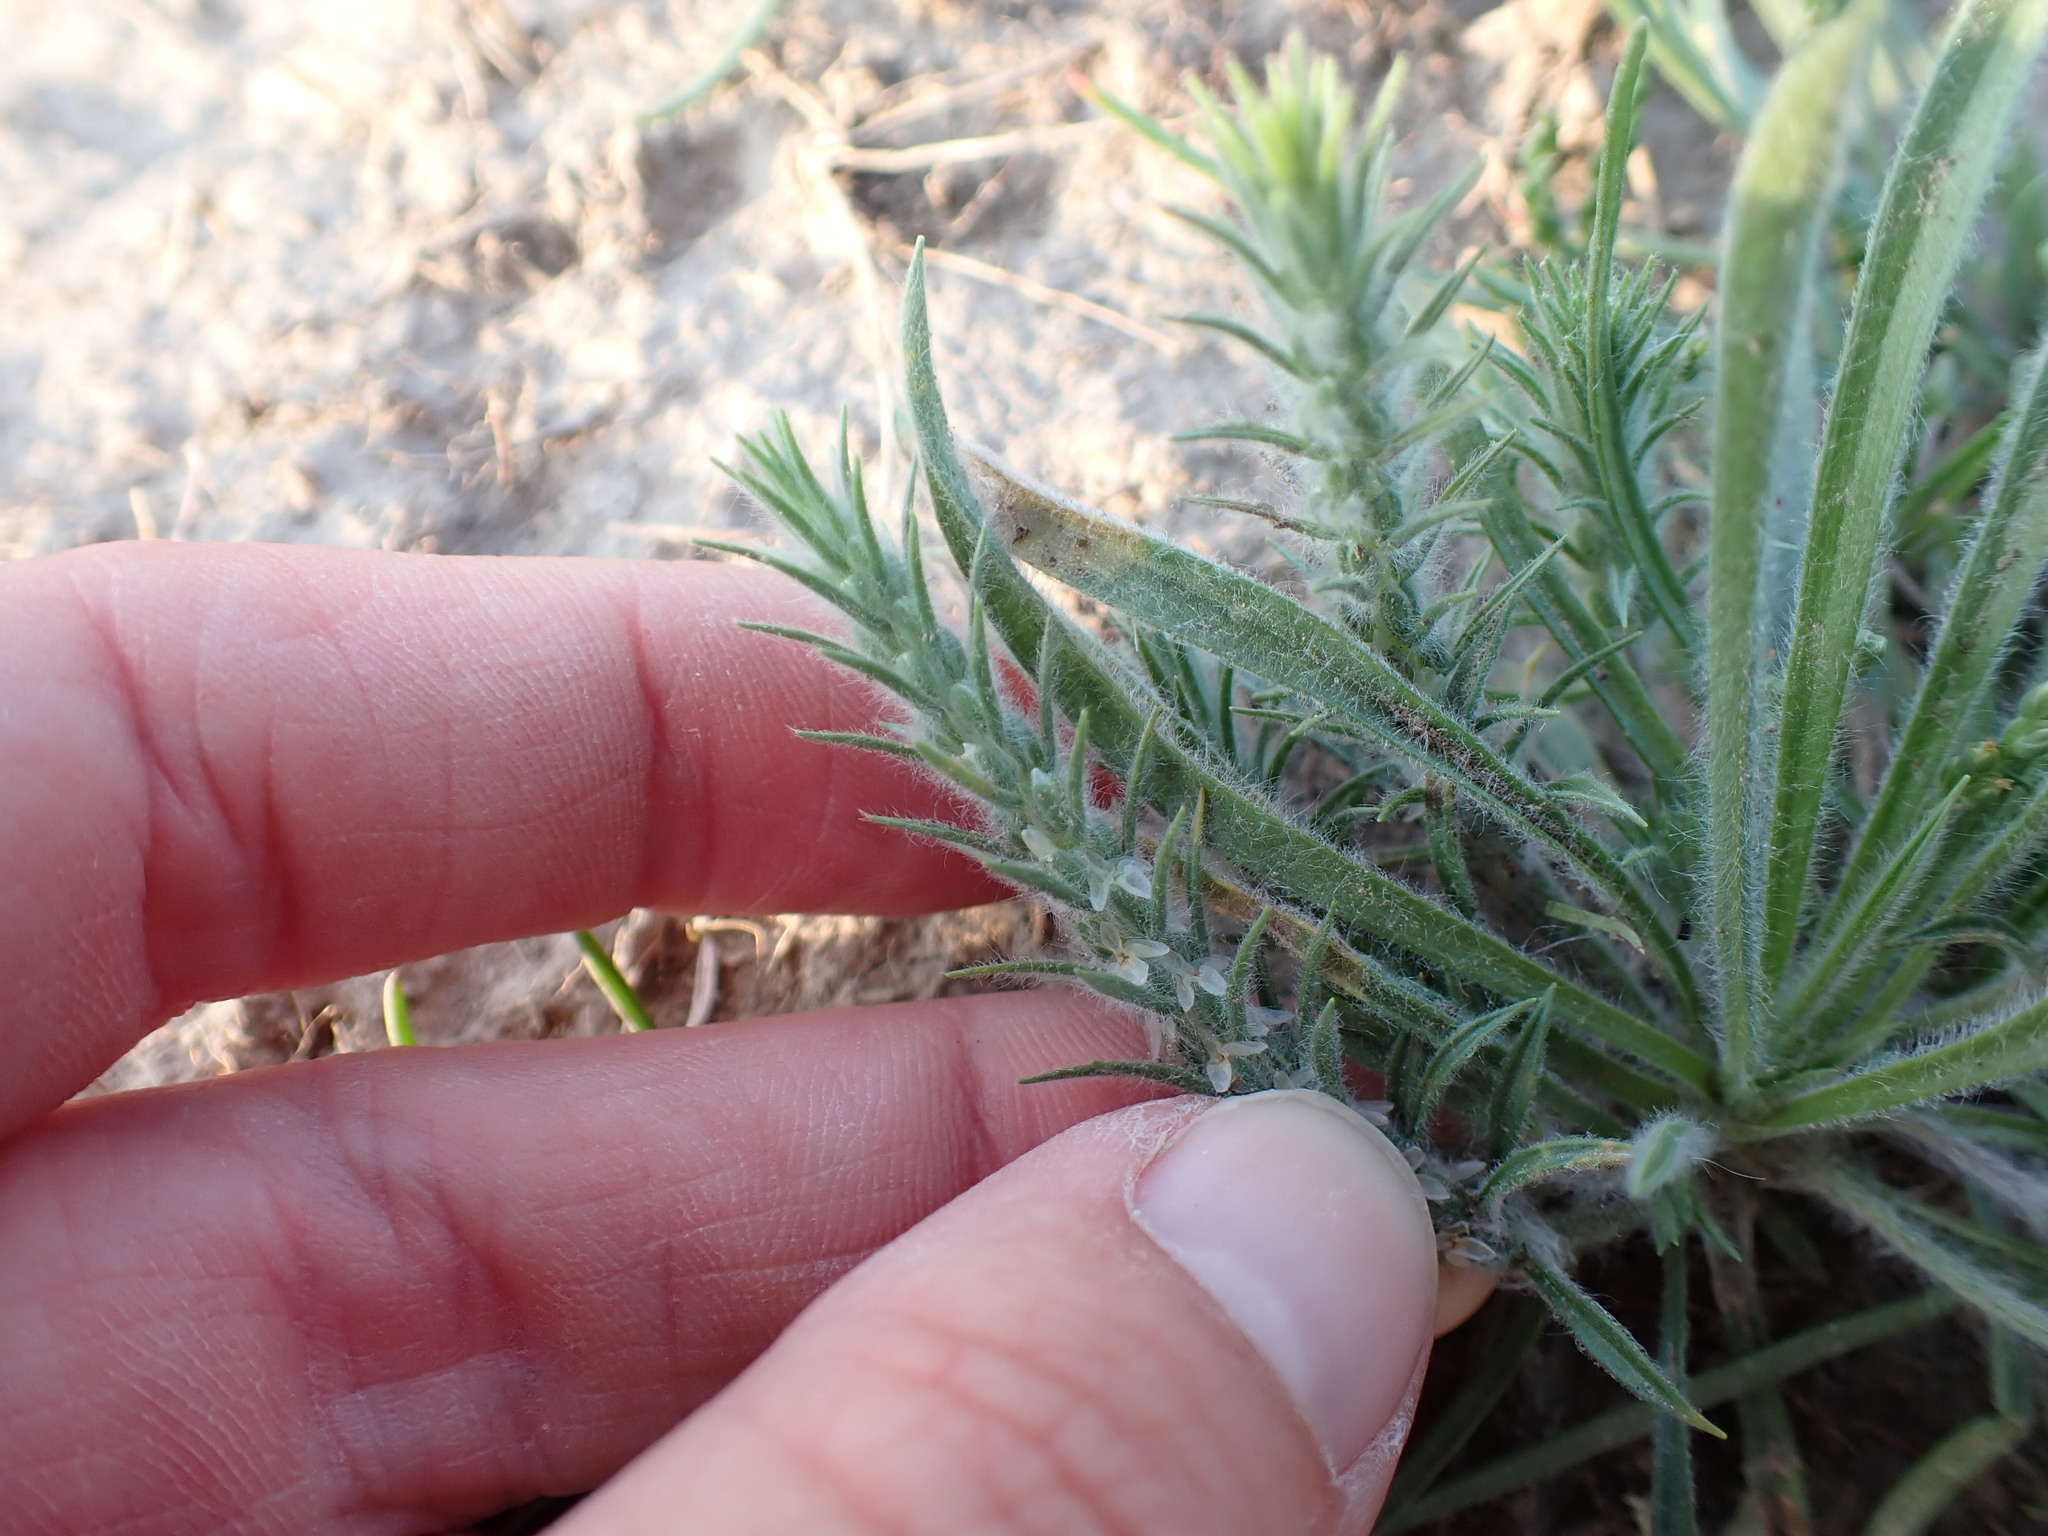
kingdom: Plantae
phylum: Tracheophyta
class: Magnoliopsida
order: Lamiales
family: Plantaginaceae
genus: Plantago
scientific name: Plantago patagonica
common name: Patagonia indian-wheat
